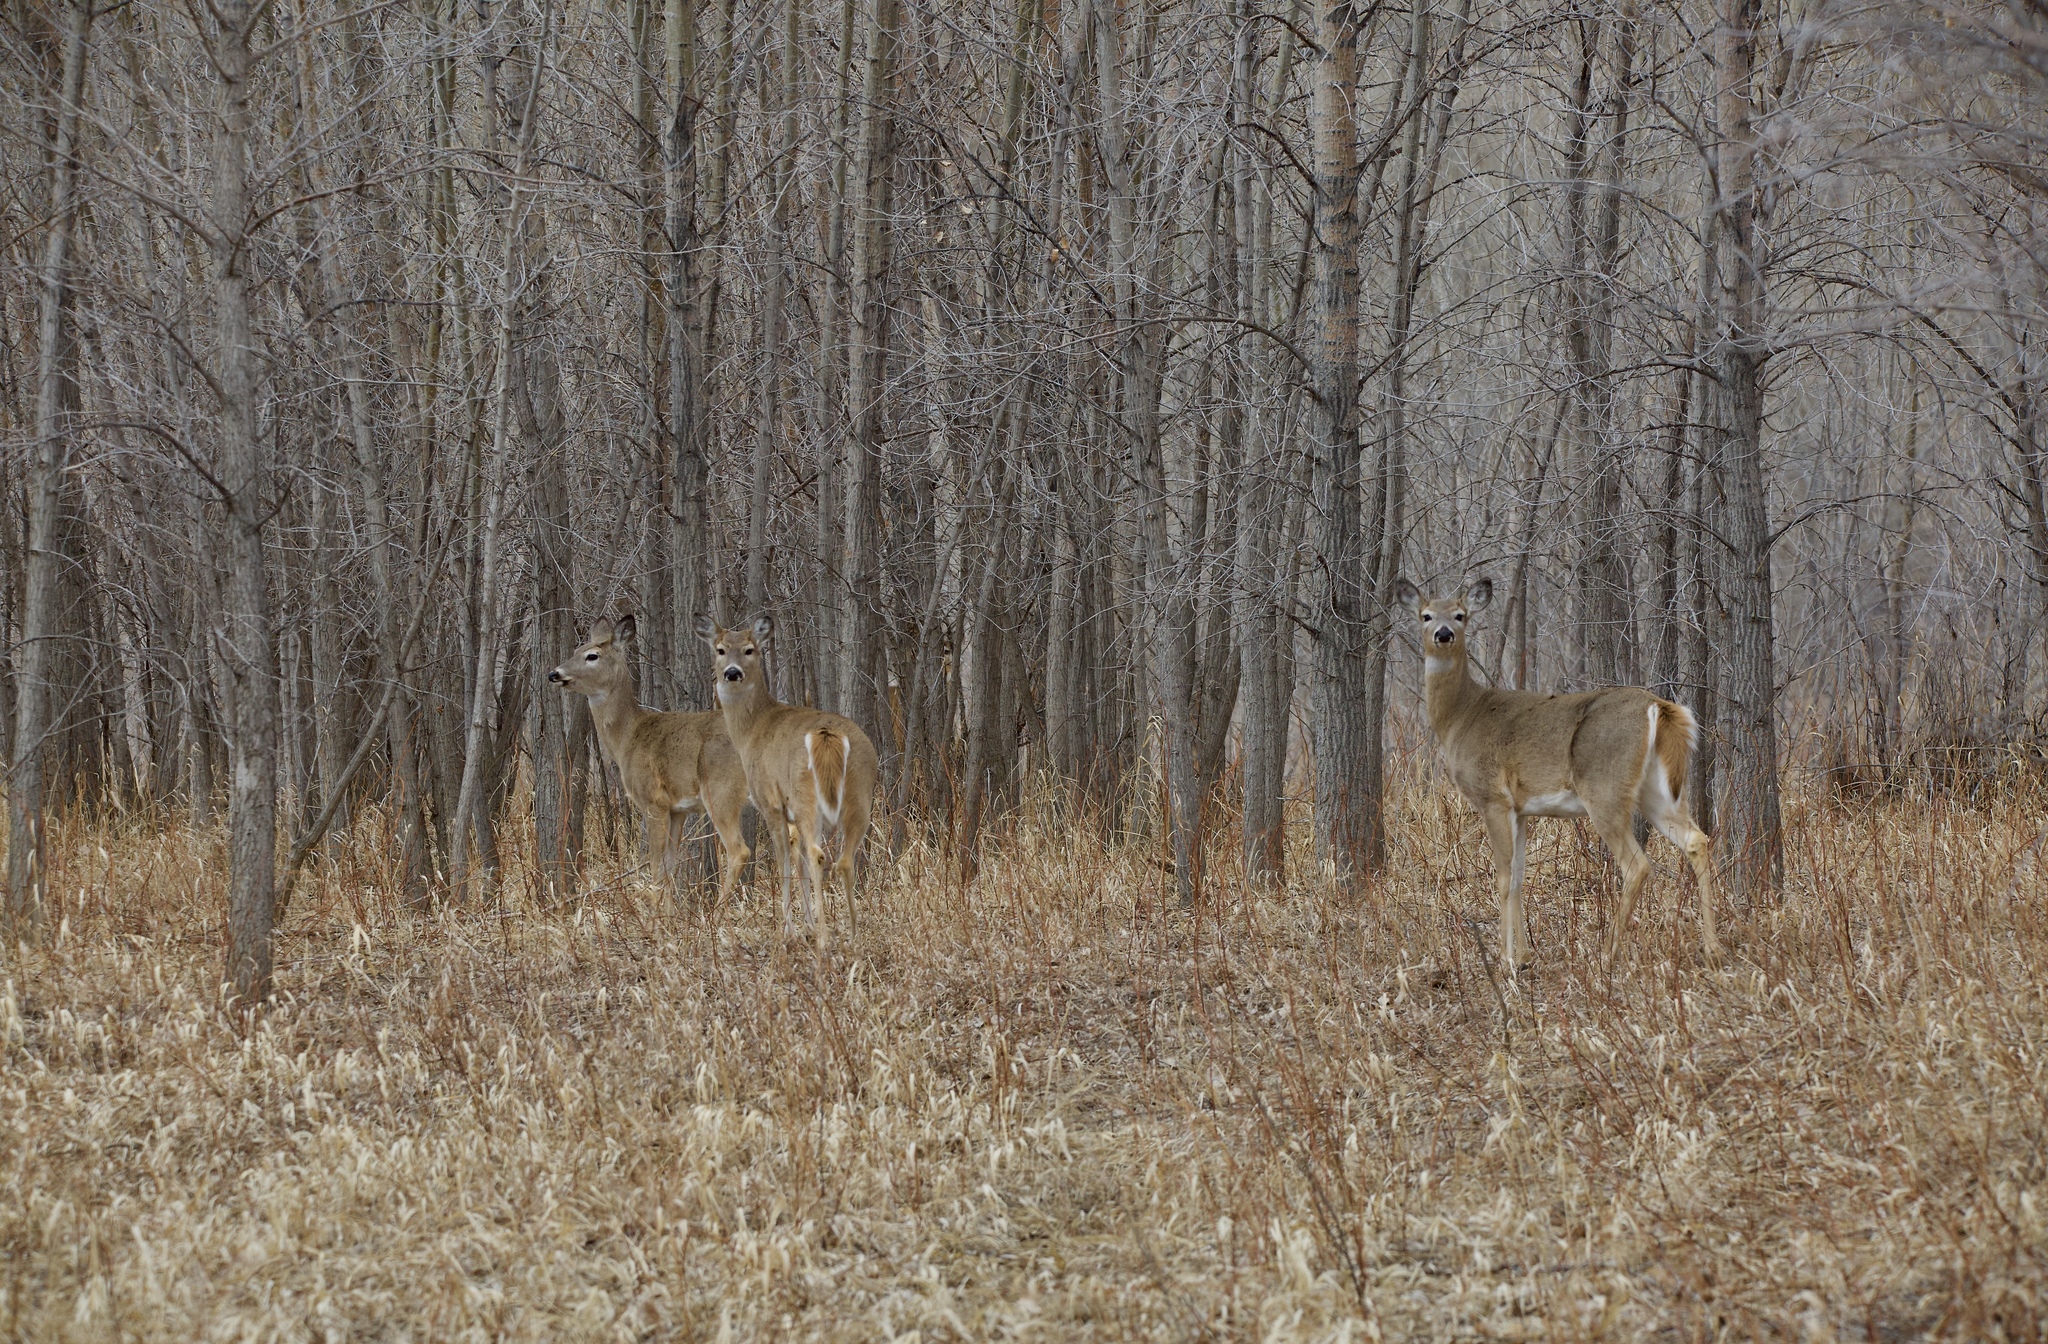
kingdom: Animalia
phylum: Chordata
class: Mammalia
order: Artiodactyla
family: Cervidae
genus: Odocoileus
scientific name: Odocoileus virginianus
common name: White-tailed deer
